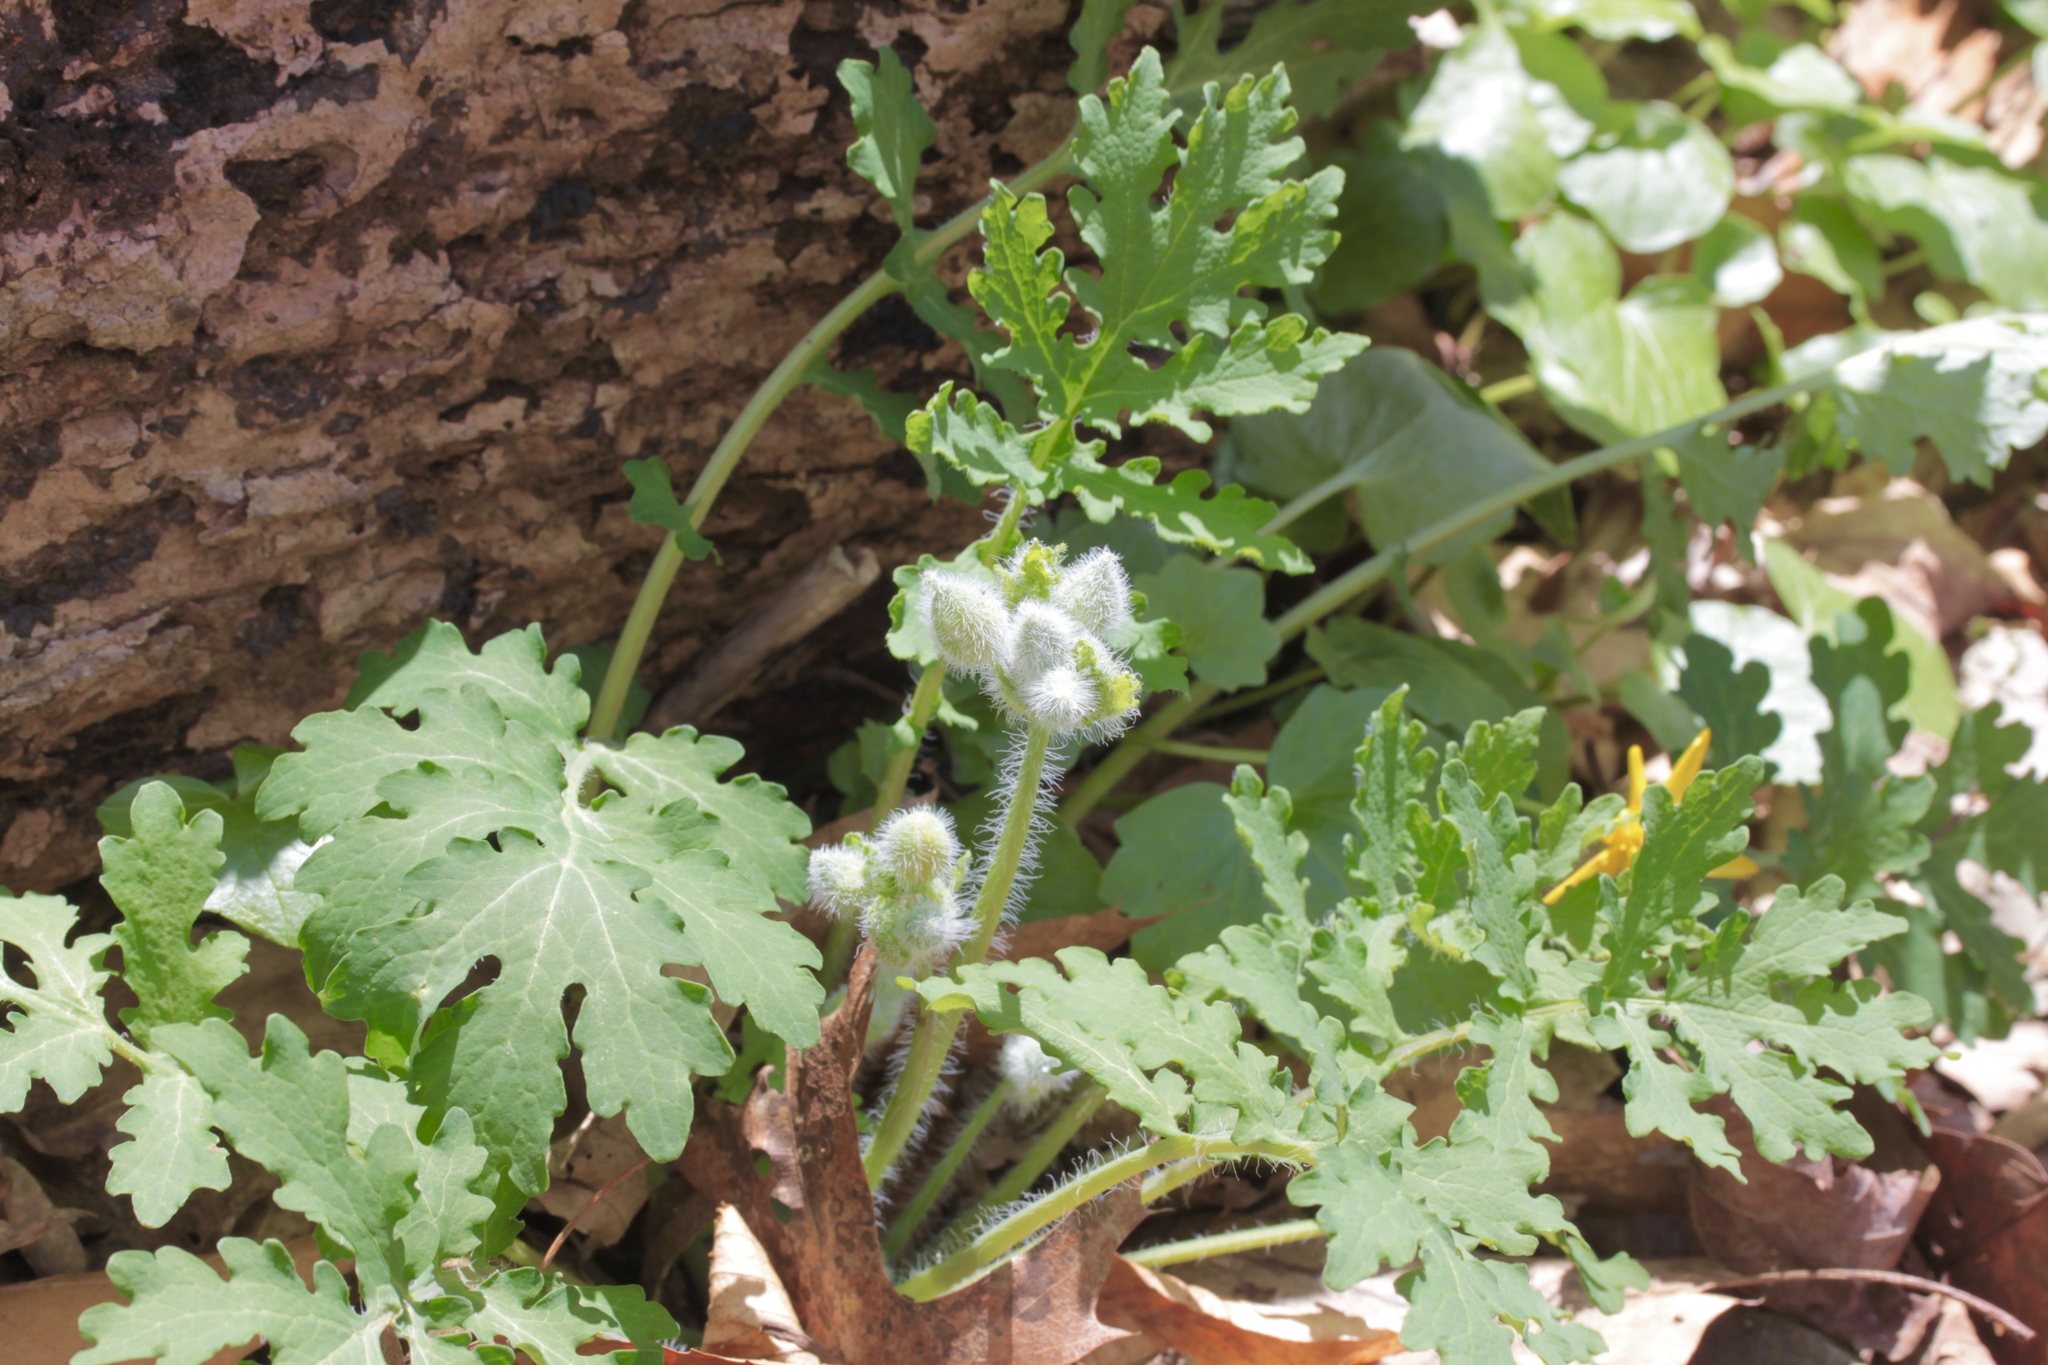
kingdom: Plantae
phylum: Tracheophyta
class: Magnoliopsida
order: Ranunculales
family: Papaveraceae
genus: Stylophorum
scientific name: Stylophorum diphyllum
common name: Celandine poppy
